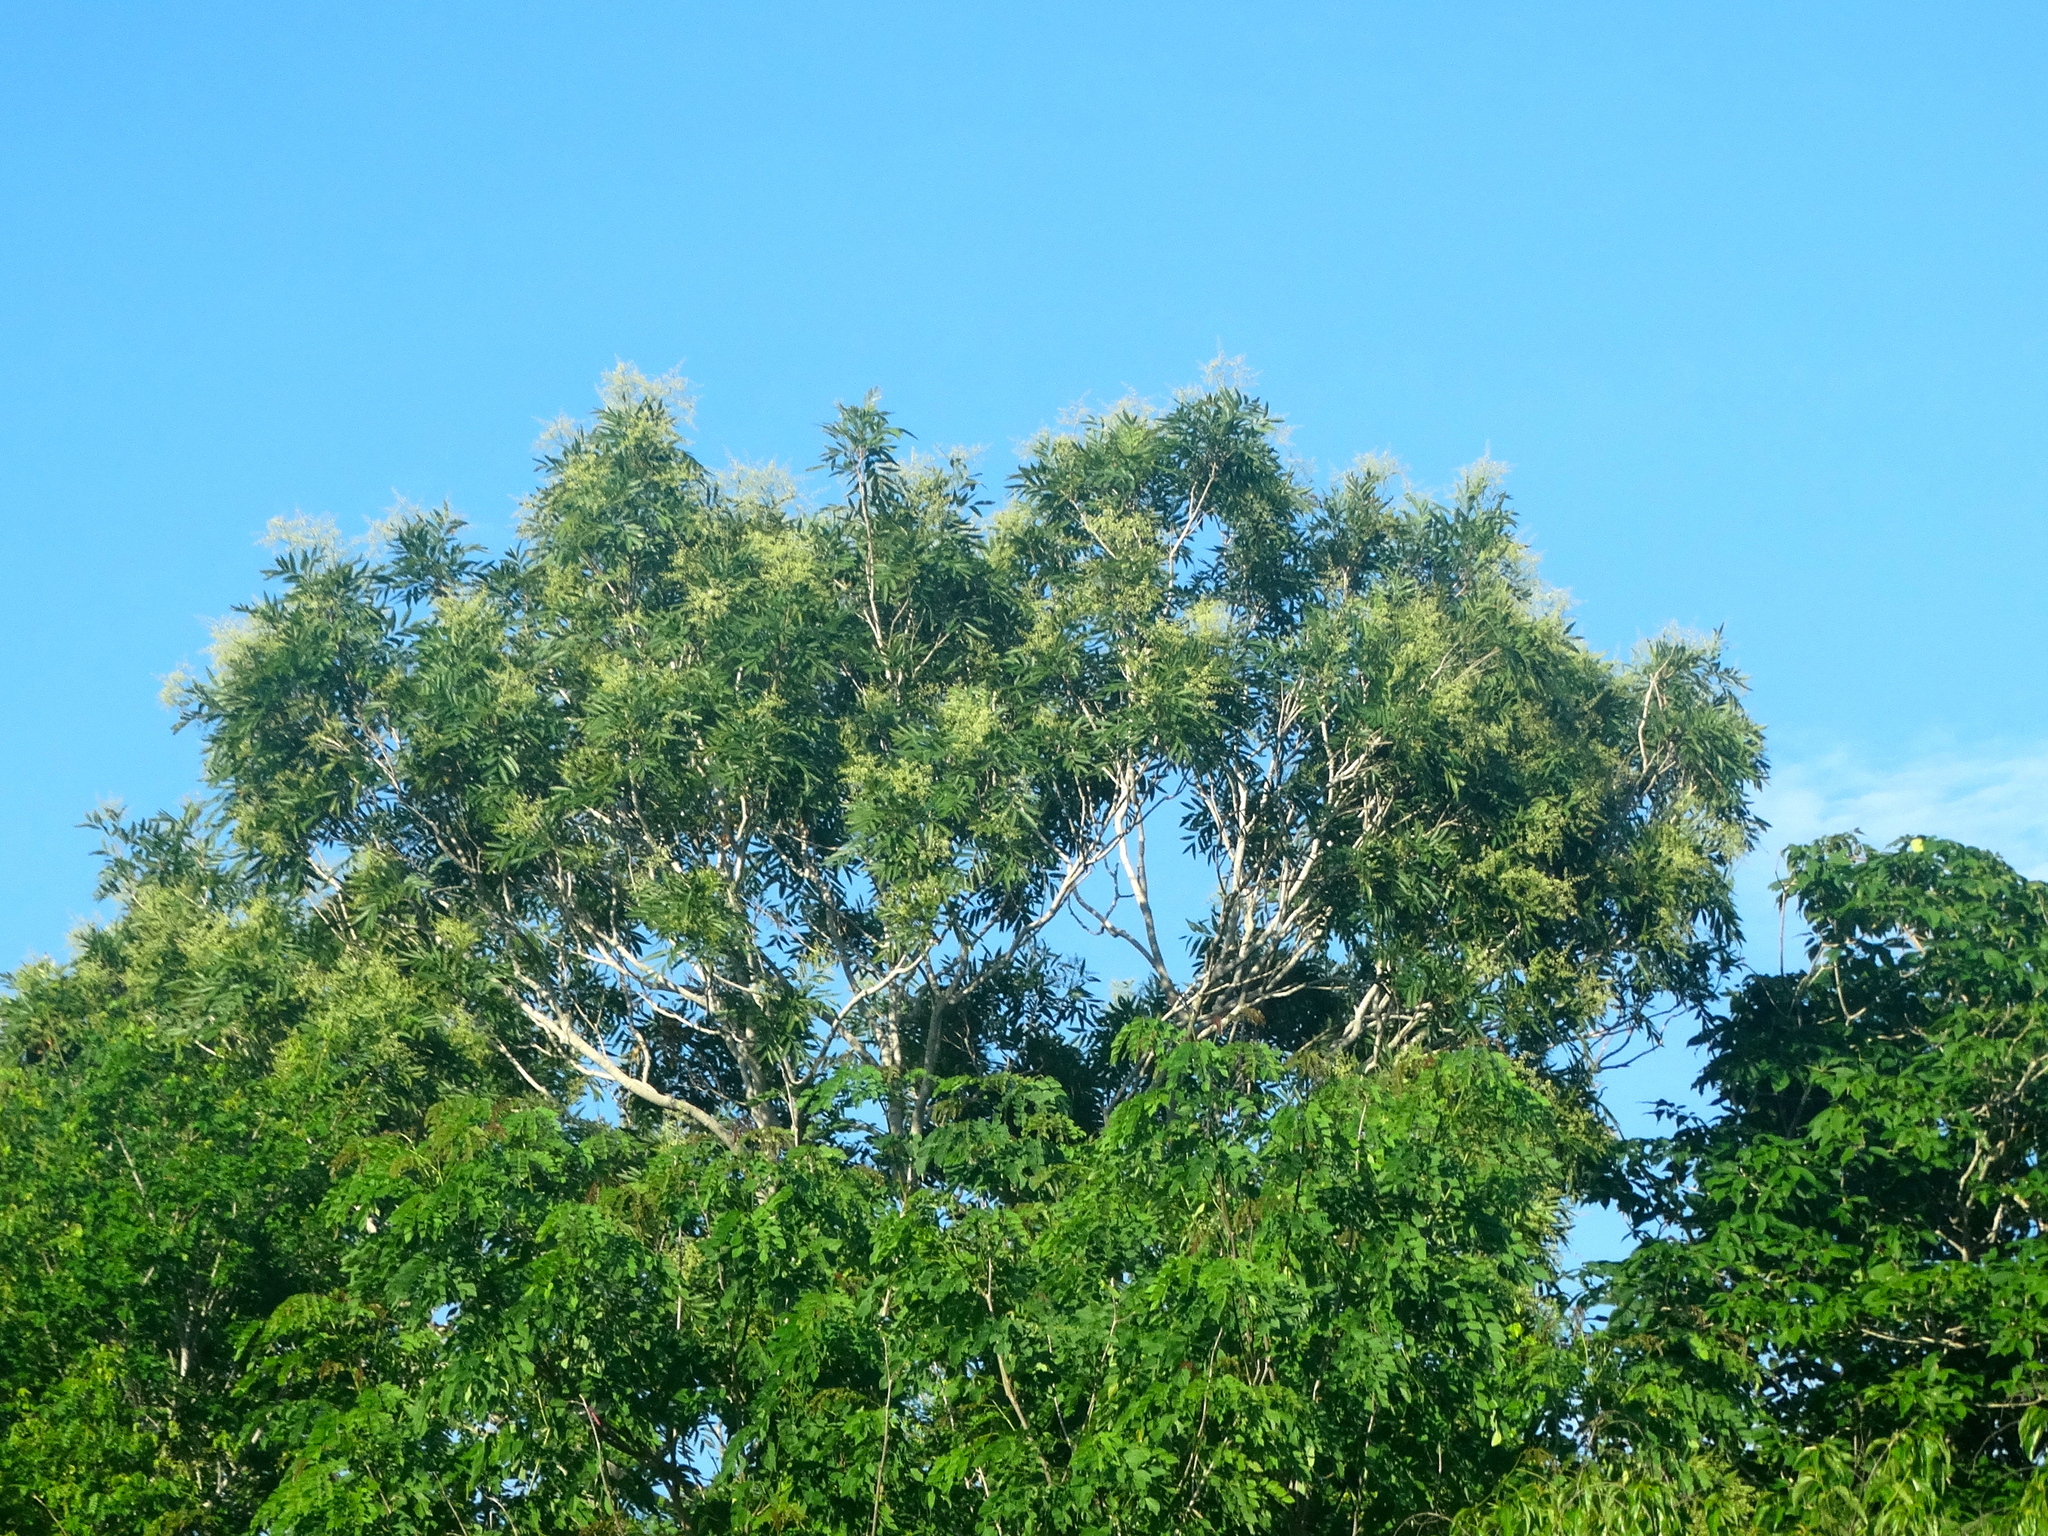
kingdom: Plantae
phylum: Tracheophyta
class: Magnoliopsida
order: Sapindales
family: Sapindaceae
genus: Thouinidium
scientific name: Thouinidium decandrum
